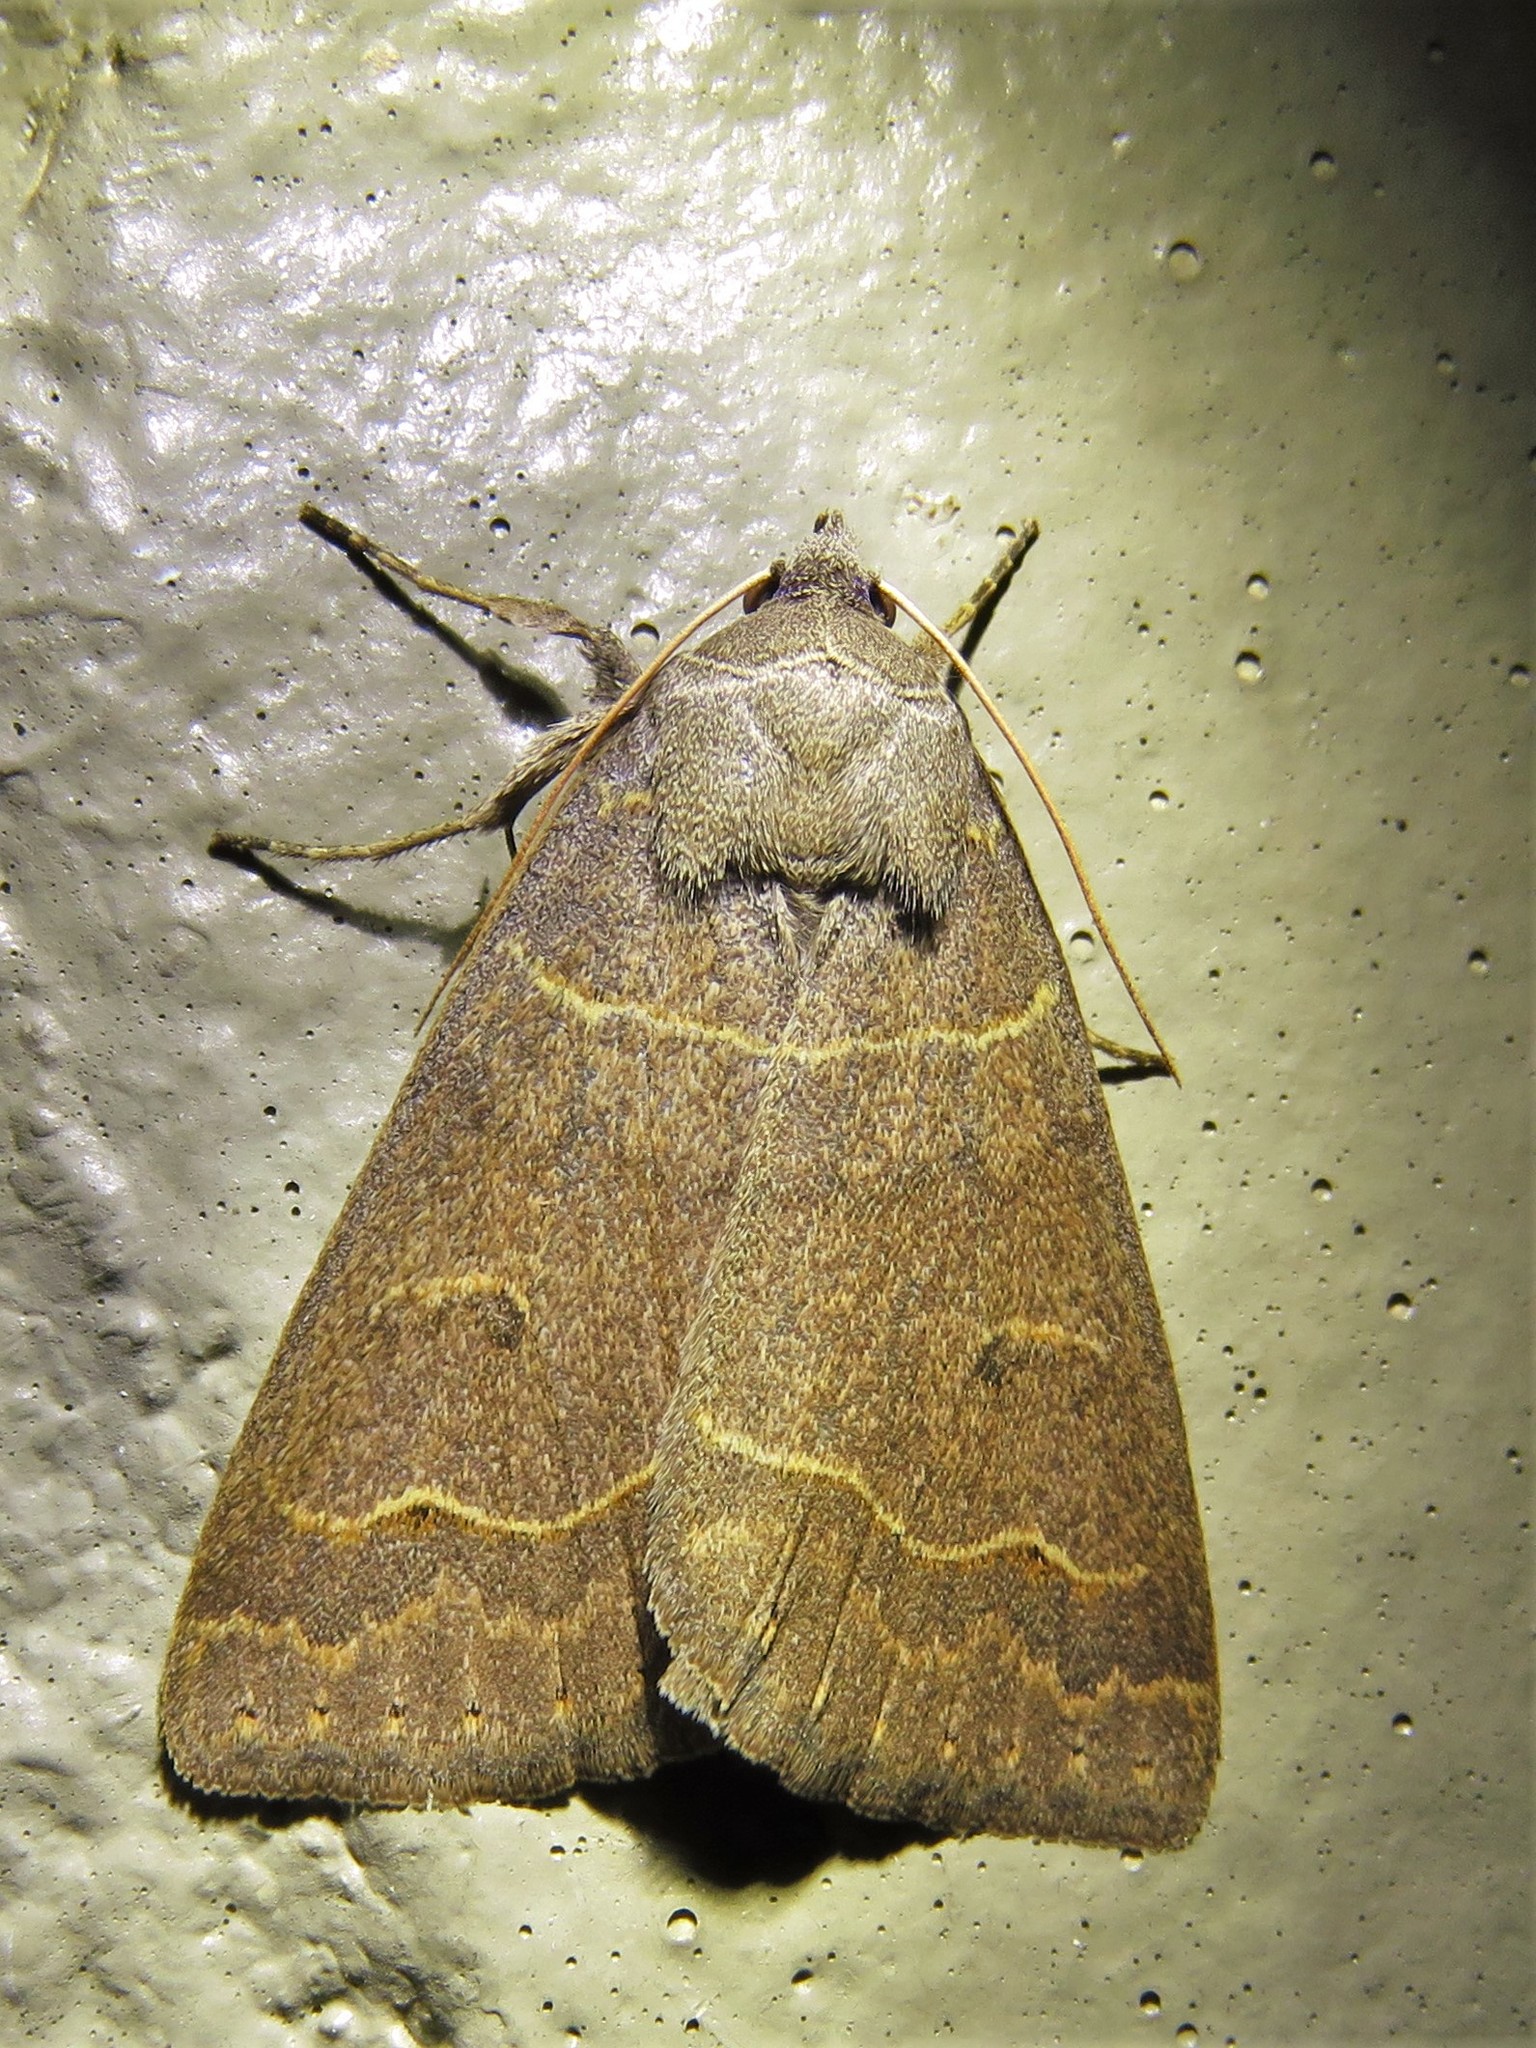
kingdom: Animalia
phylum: Arthropoda
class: Insecta
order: Lepidoptera
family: Erebidae
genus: Phoberia
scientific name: Phoberia atomaris
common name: Common oak moth
